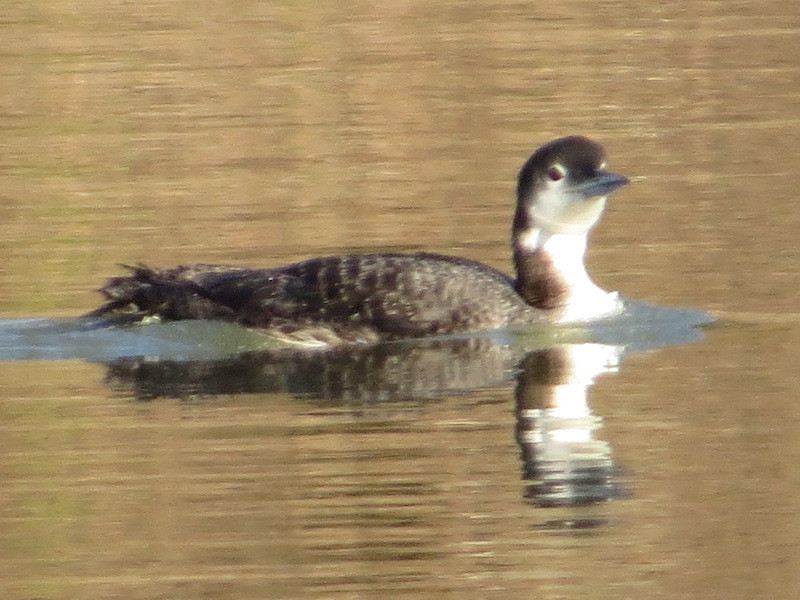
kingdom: Animalia
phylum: Chordata
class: Aves
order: Gaviiformes
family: Gaviidae
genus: Gavia
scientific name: Gavia immer
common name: Common loon
